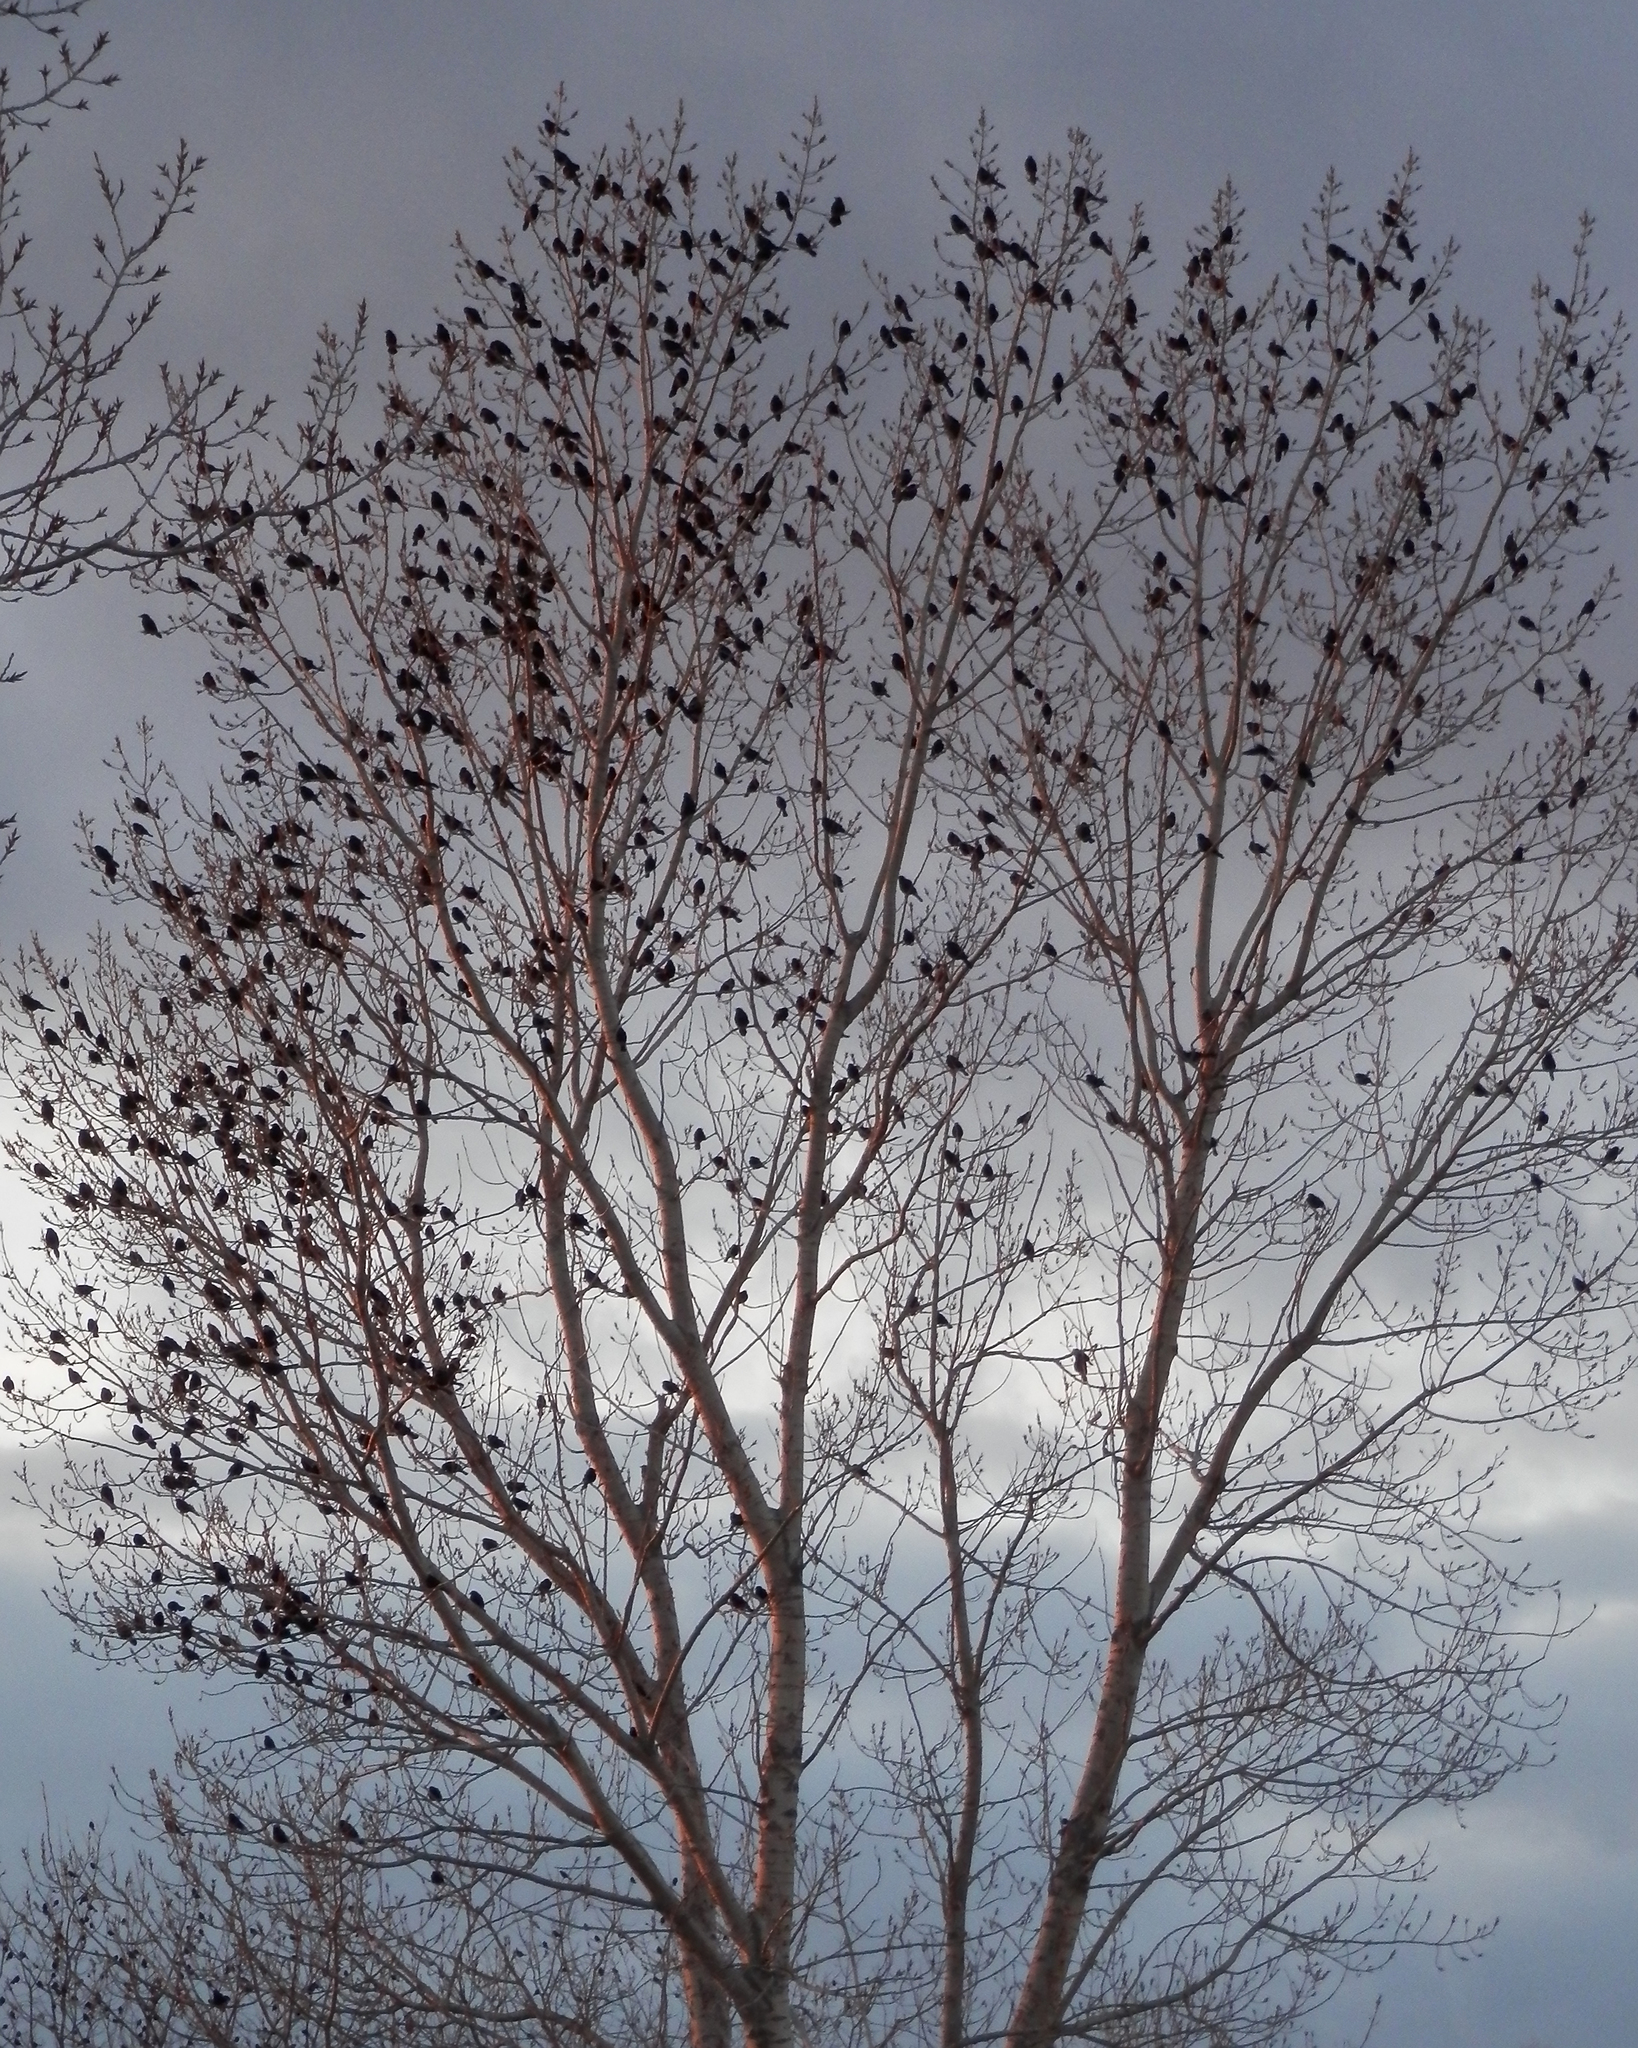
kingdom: Animalia
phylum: Chordata
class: Aves
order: Passeriformes
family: Icteridae
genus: Quiscalus
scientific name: Quiscalus quiscula
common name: Common grackle
